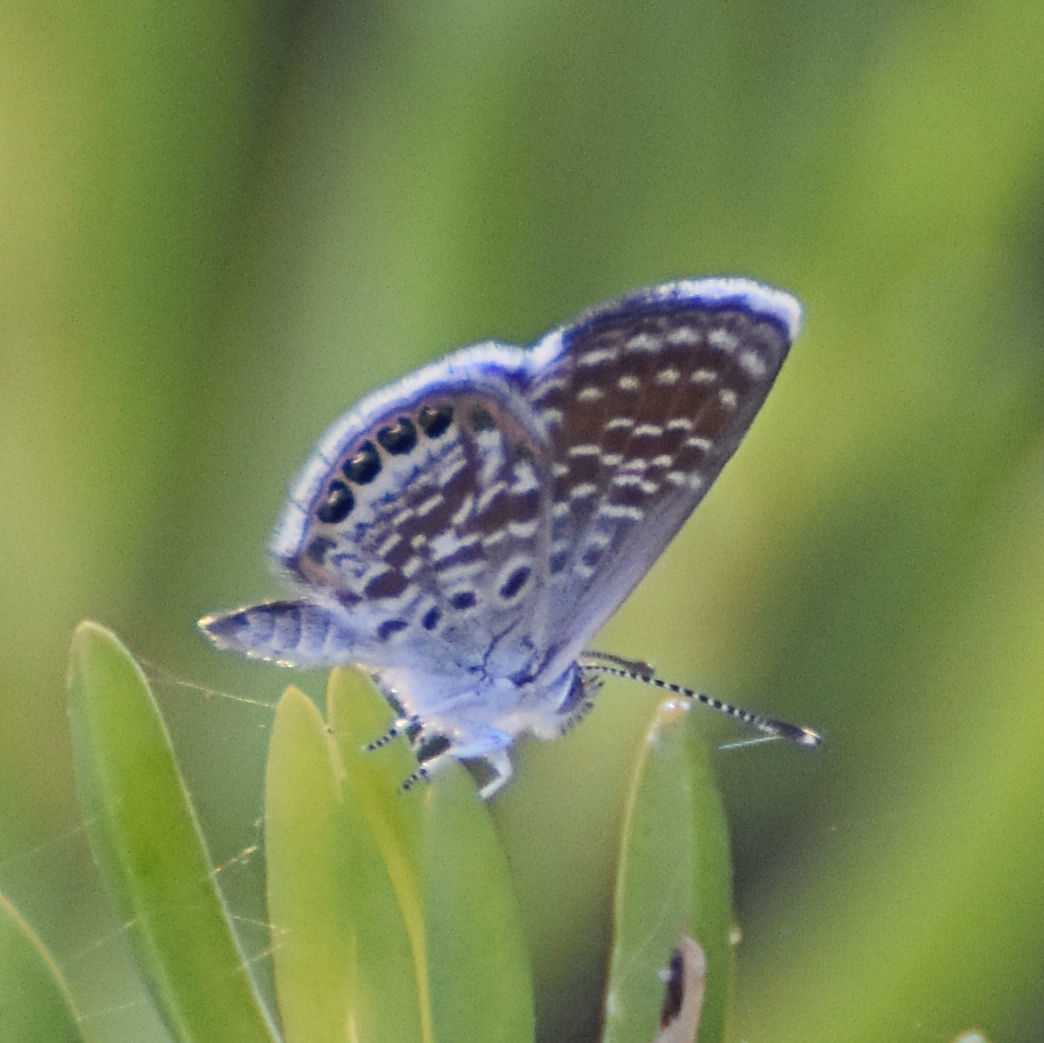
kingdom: Animalia
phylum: Arthropoda
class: Insecta
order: Lepidoptera
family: Lycaenidae
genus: Brephidium
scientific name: Brephidium exilis
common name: Pygmy blue
